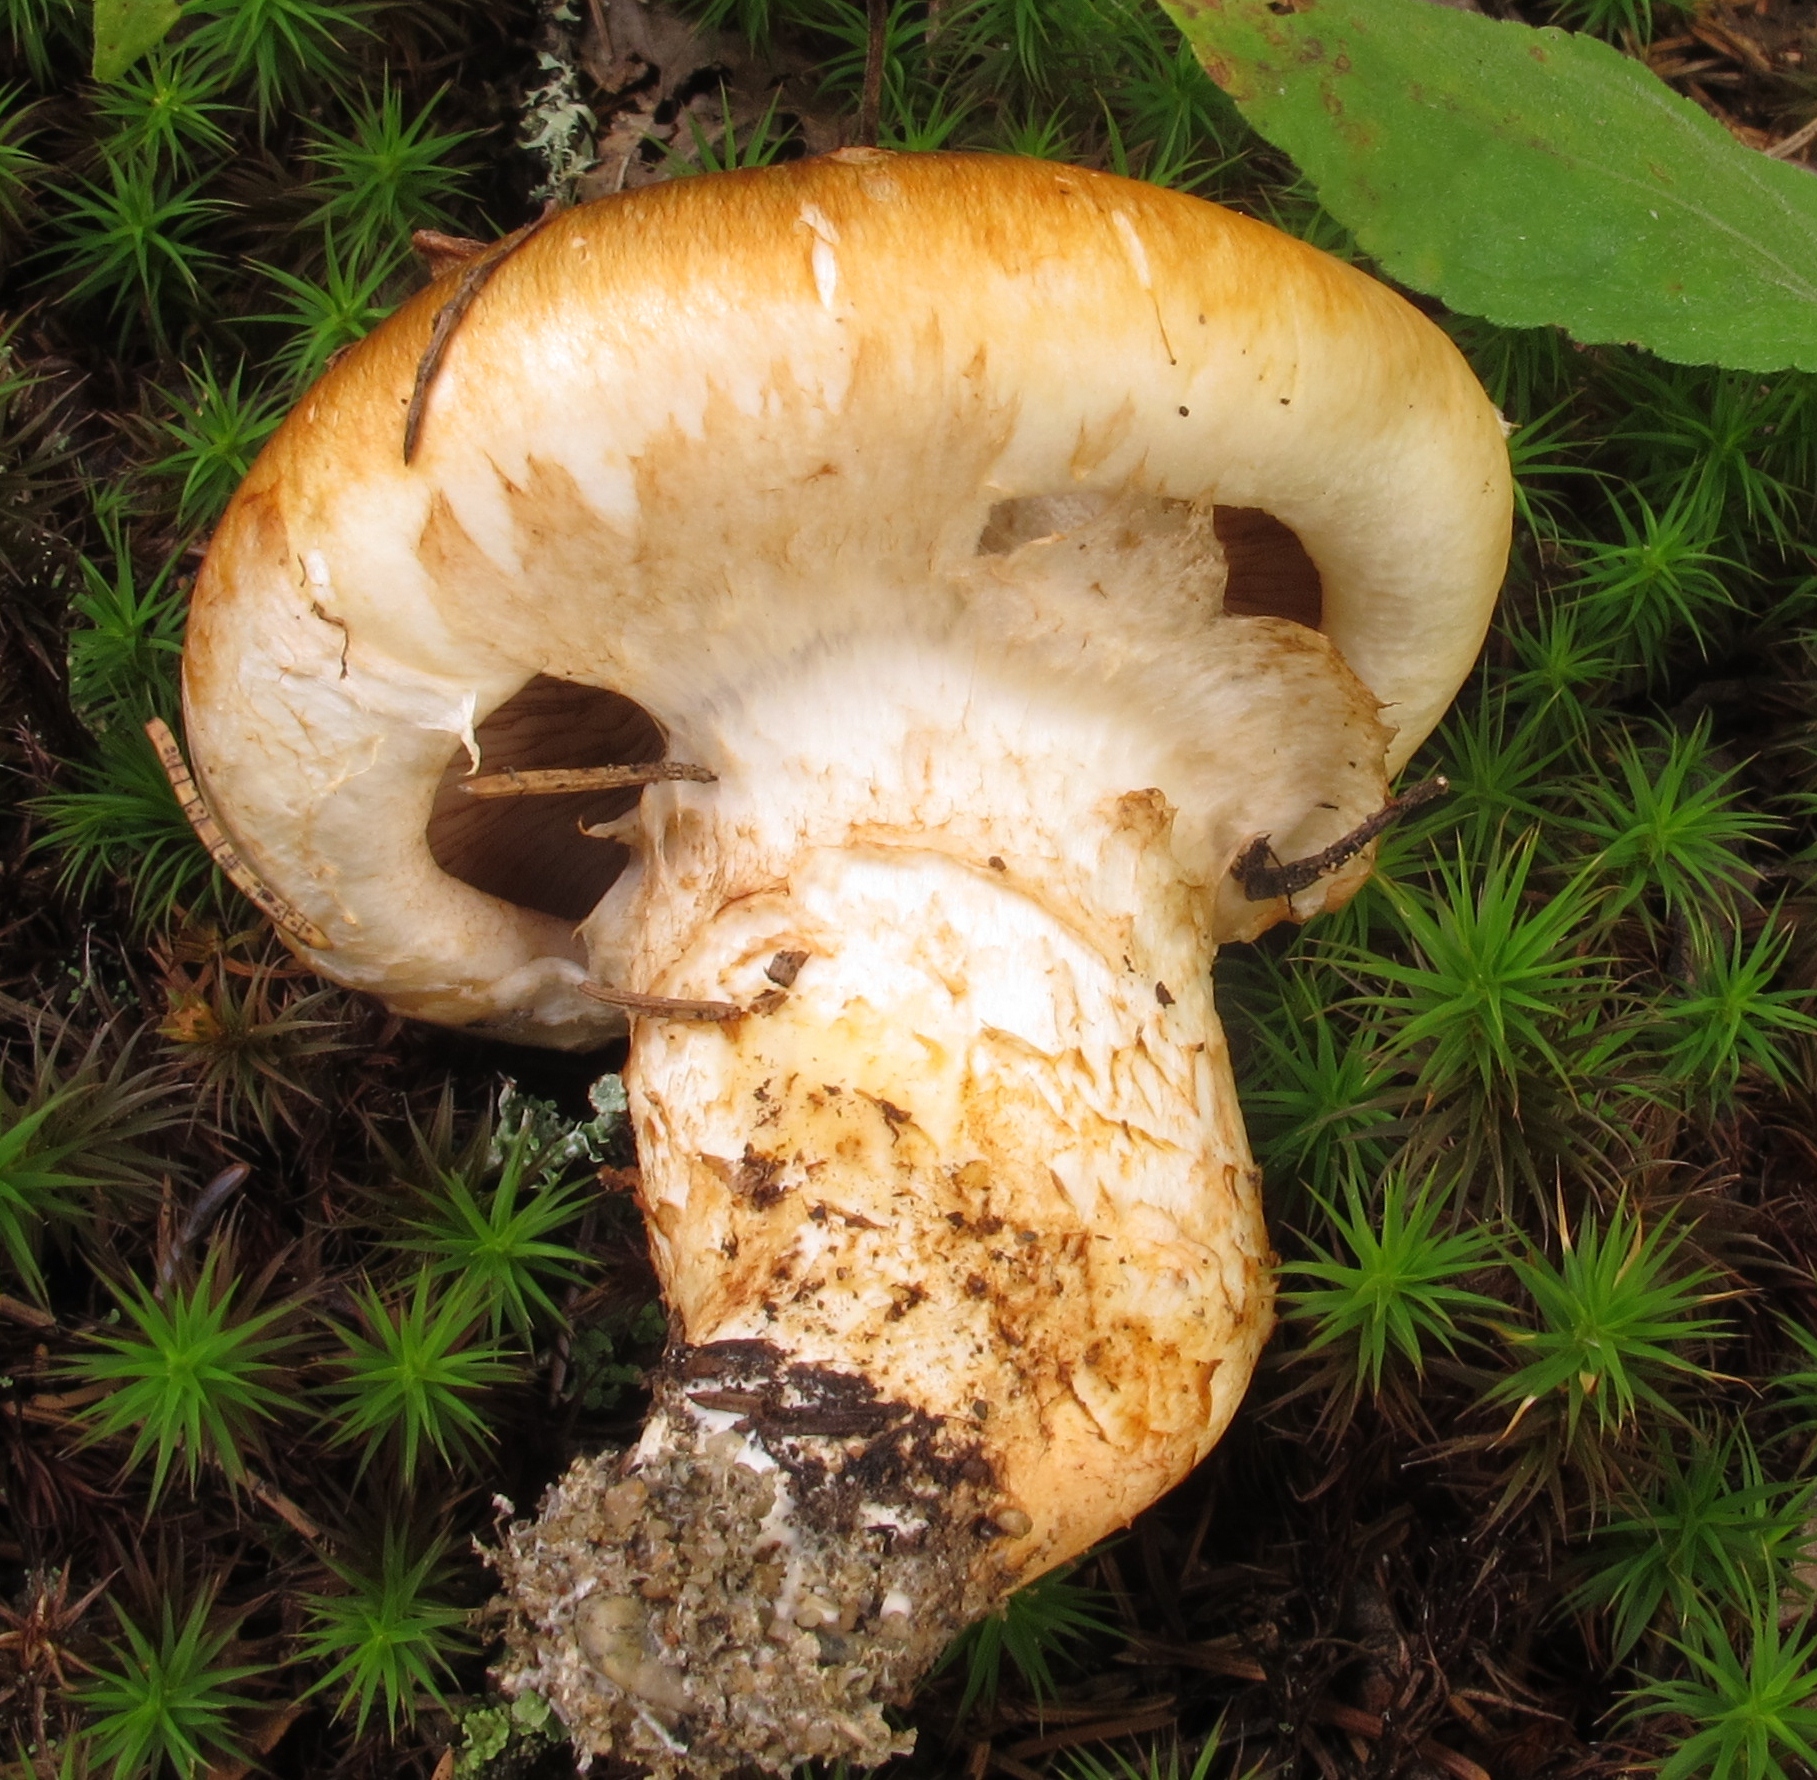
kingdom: Fungi
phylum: Basidiomycota
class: Agaricomycetes
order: Agaricales
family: Tricholomataceae
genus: Tricholoma
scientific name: Tricholoma focale
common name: Booted knight
